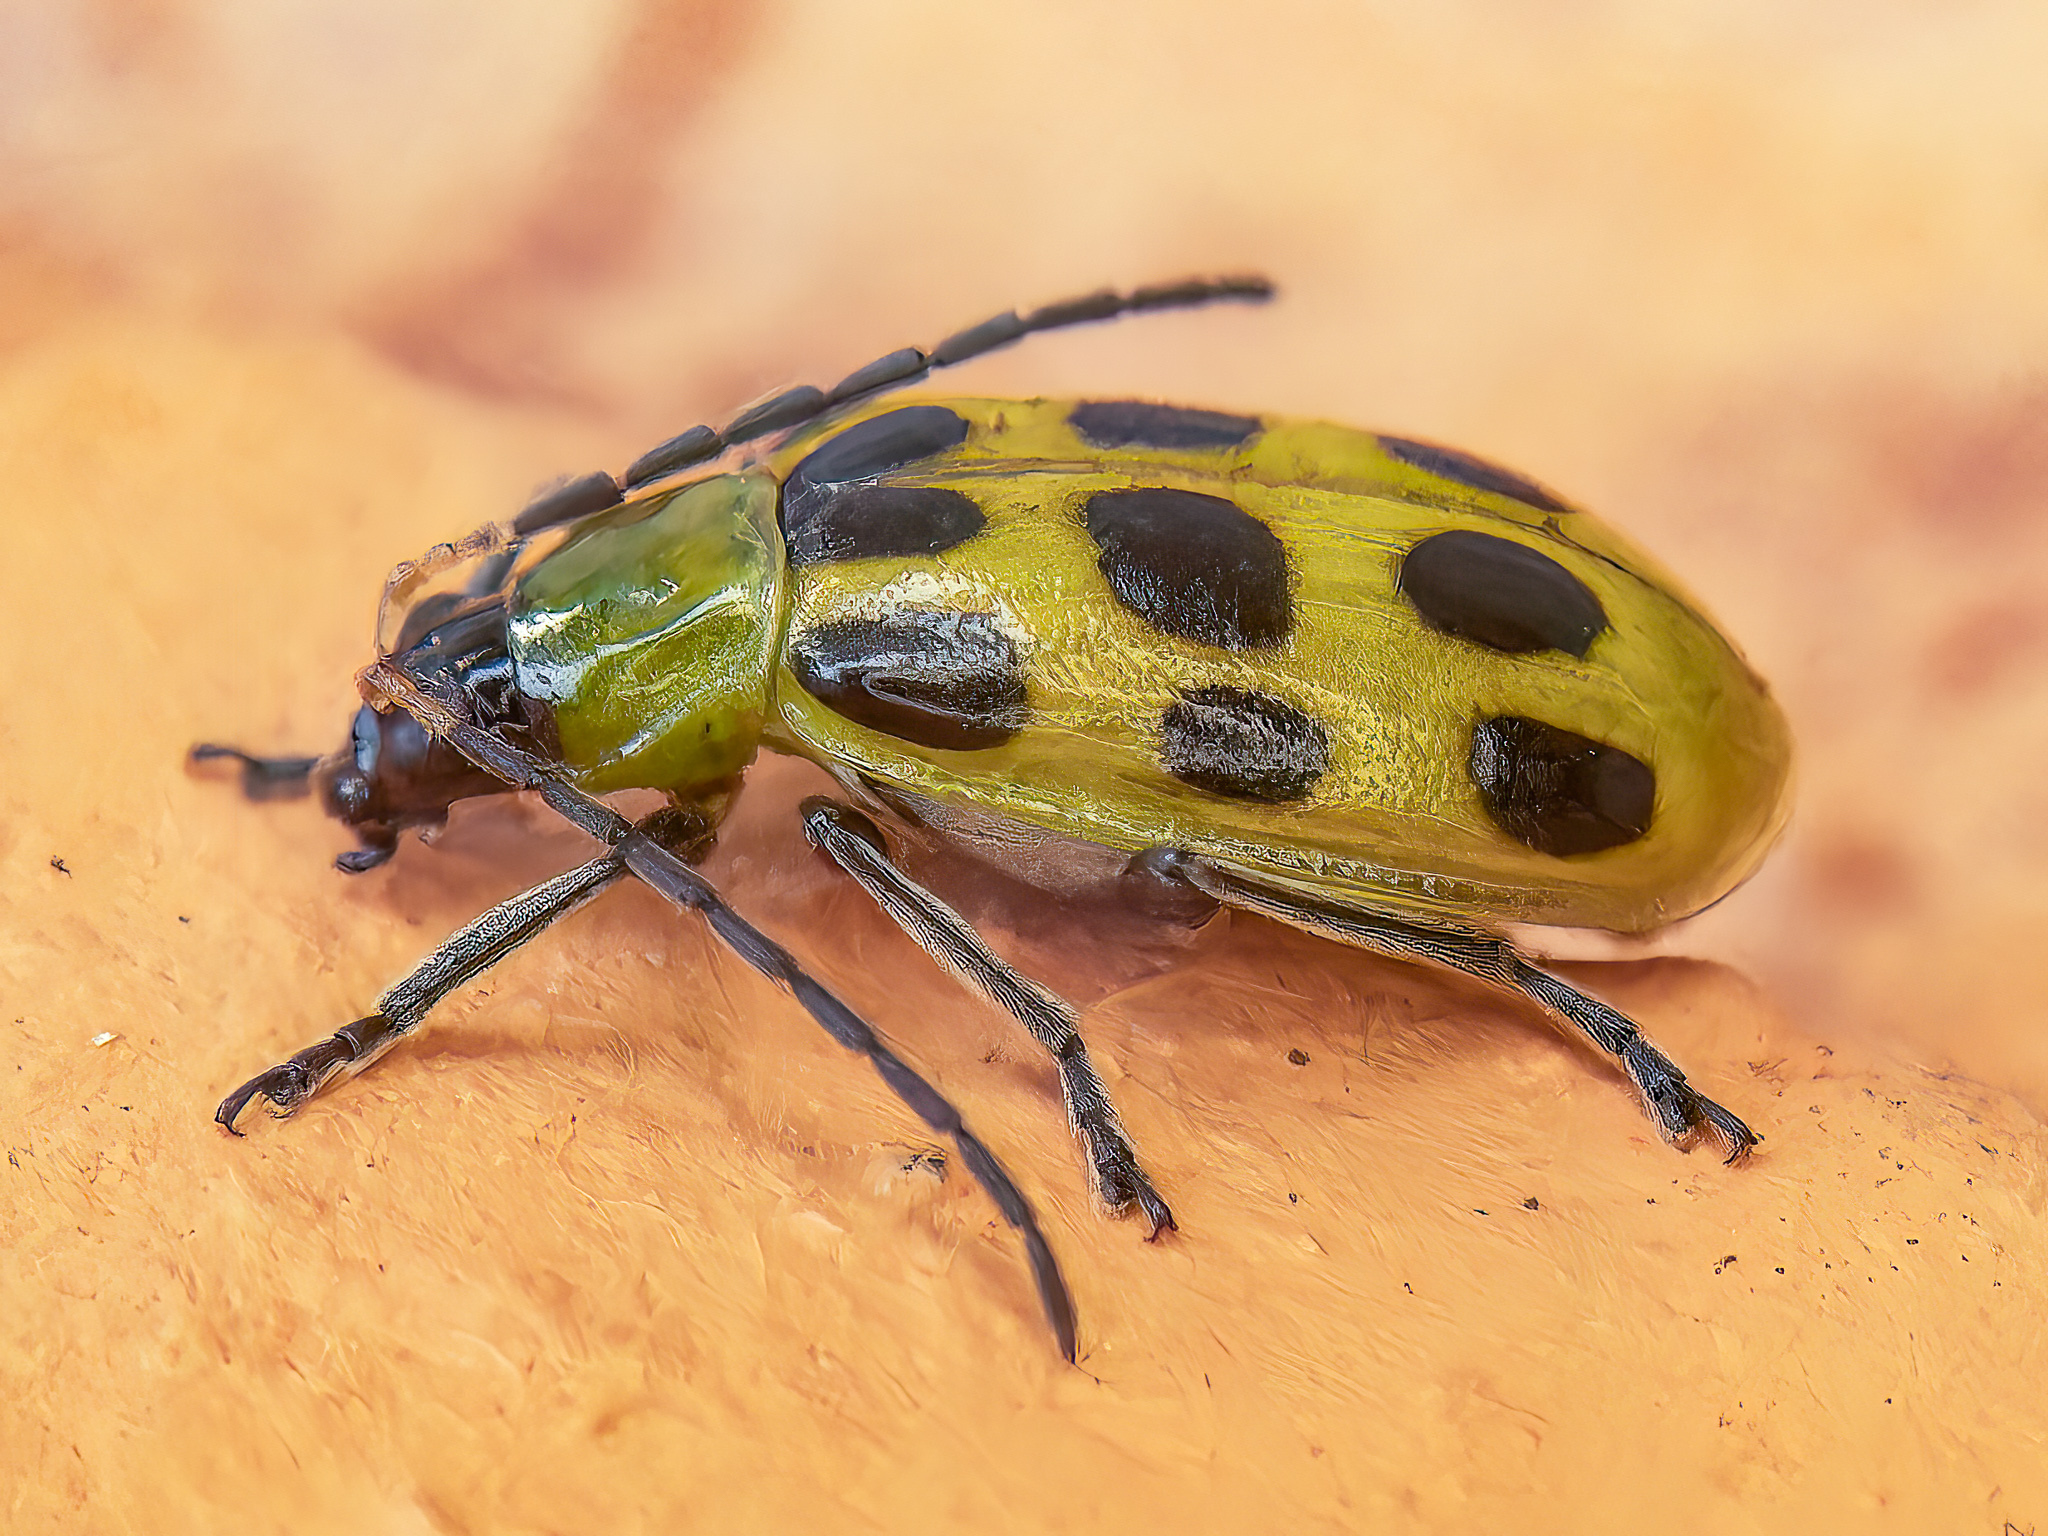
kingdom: Animalia
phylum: Arthropoda
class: Insecta
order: Coleoptera
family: Chrysomelidae
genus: Diabrotica
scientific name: Diabrotica undecimpunctata
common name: Spotted cucumber beetle
